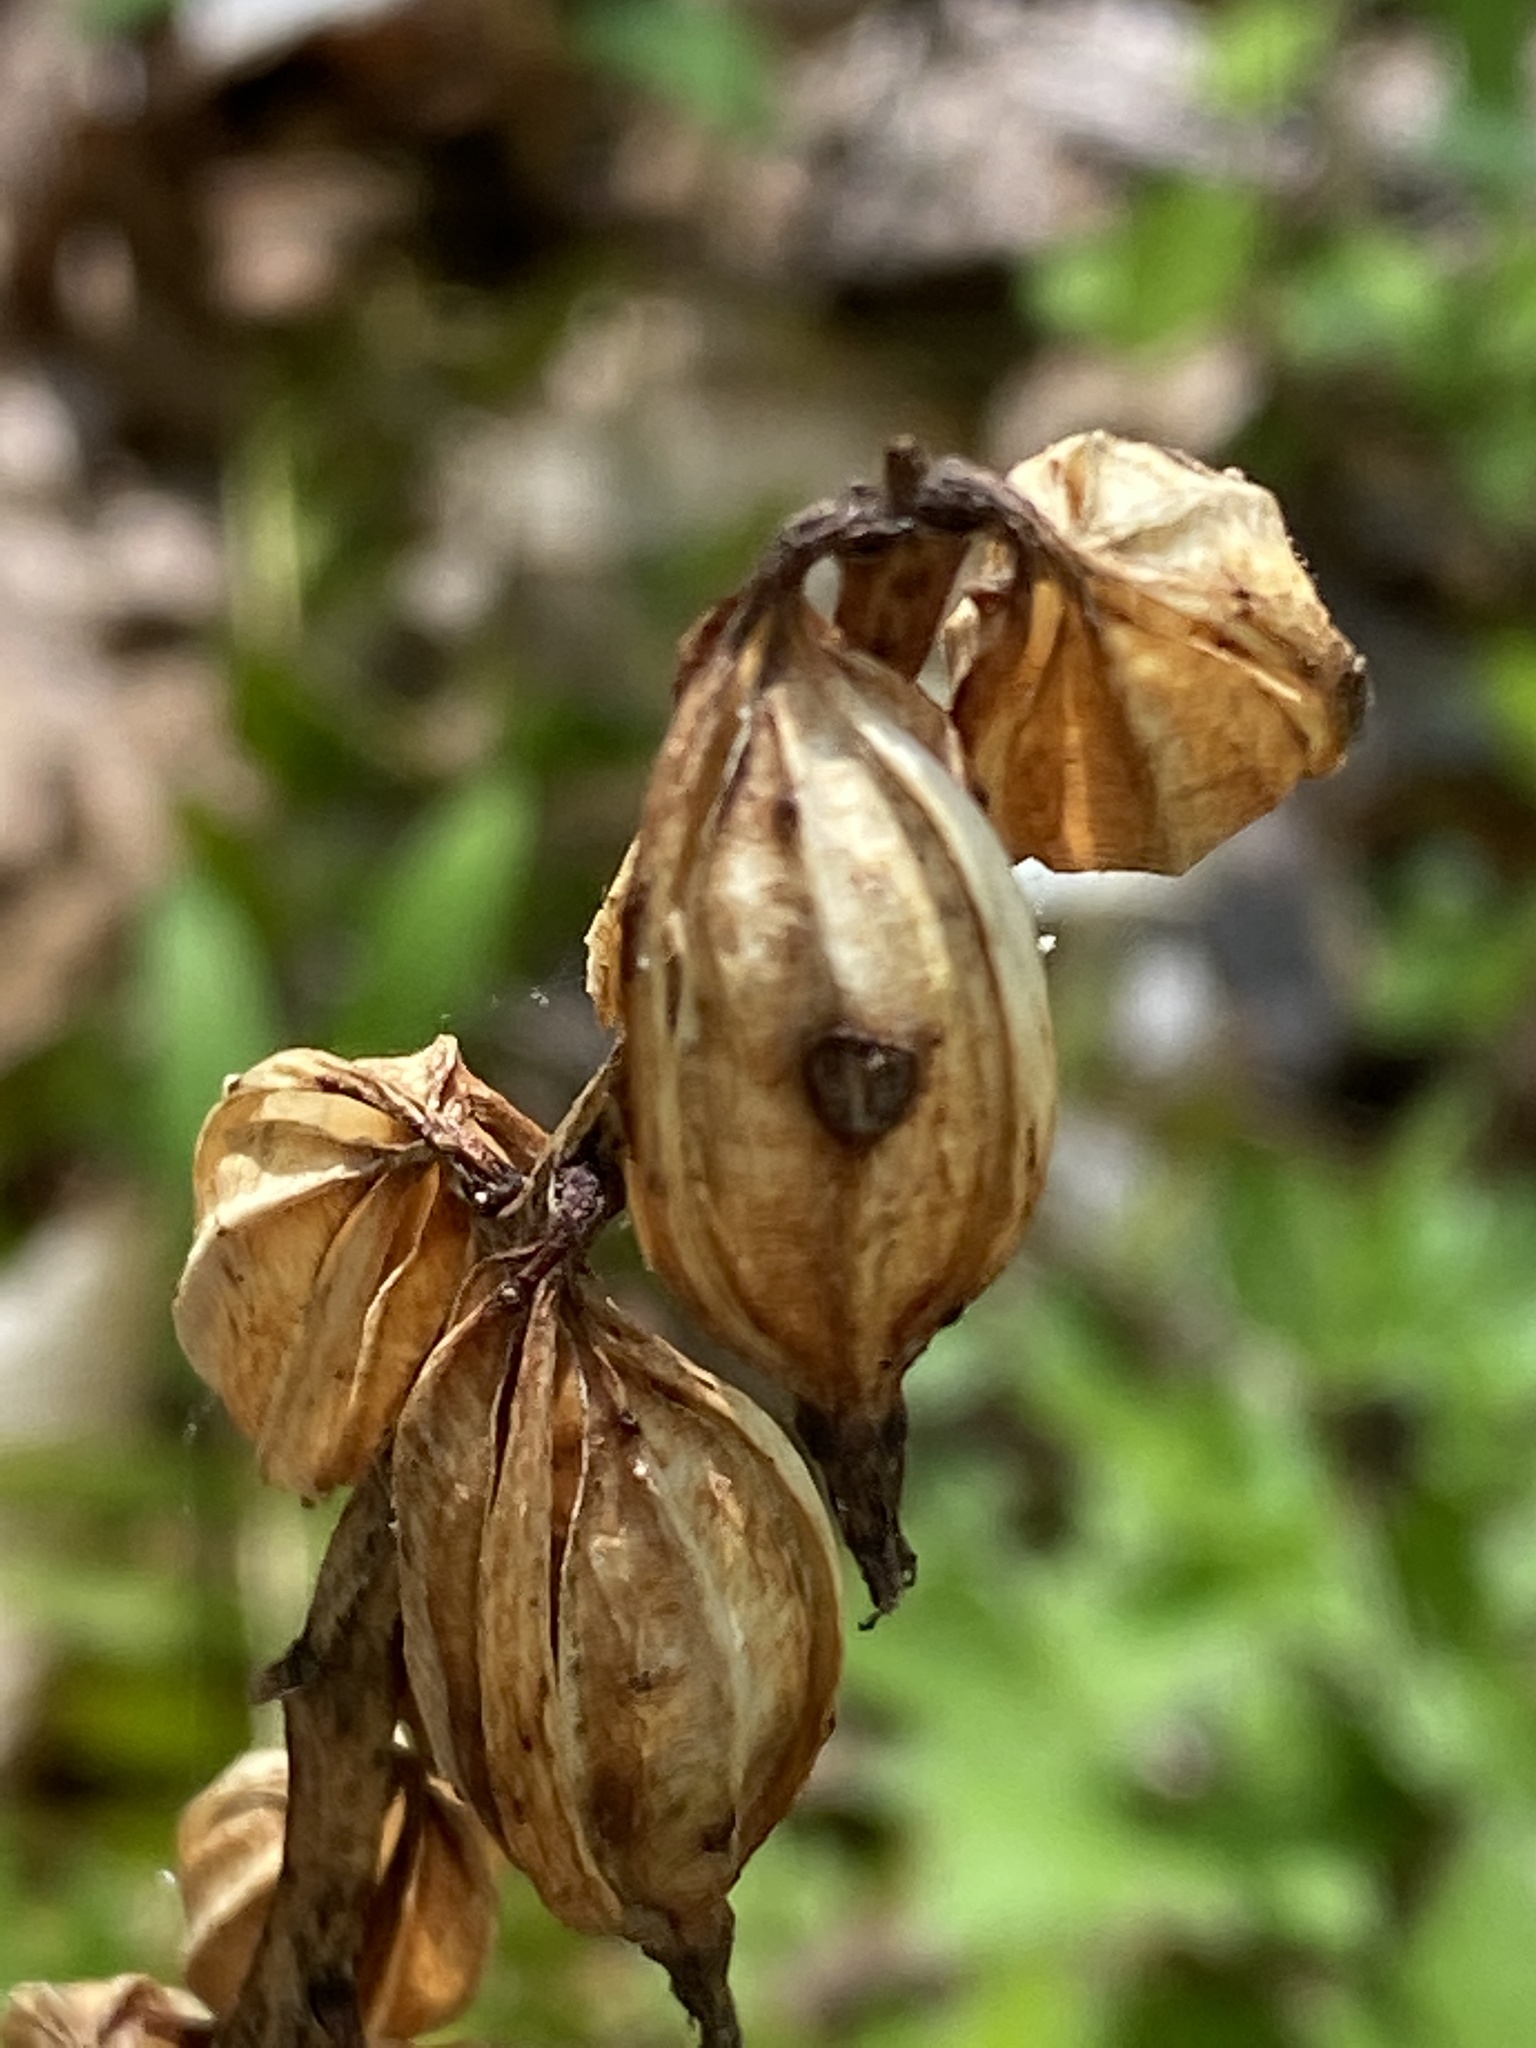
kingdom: Plantae
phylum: Tracheophyta
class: Liliopsida
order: Asparagales
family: Orchidaceae
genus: Aplectrum
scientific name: Aplectrum hyemale
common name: Adam-and-eve
